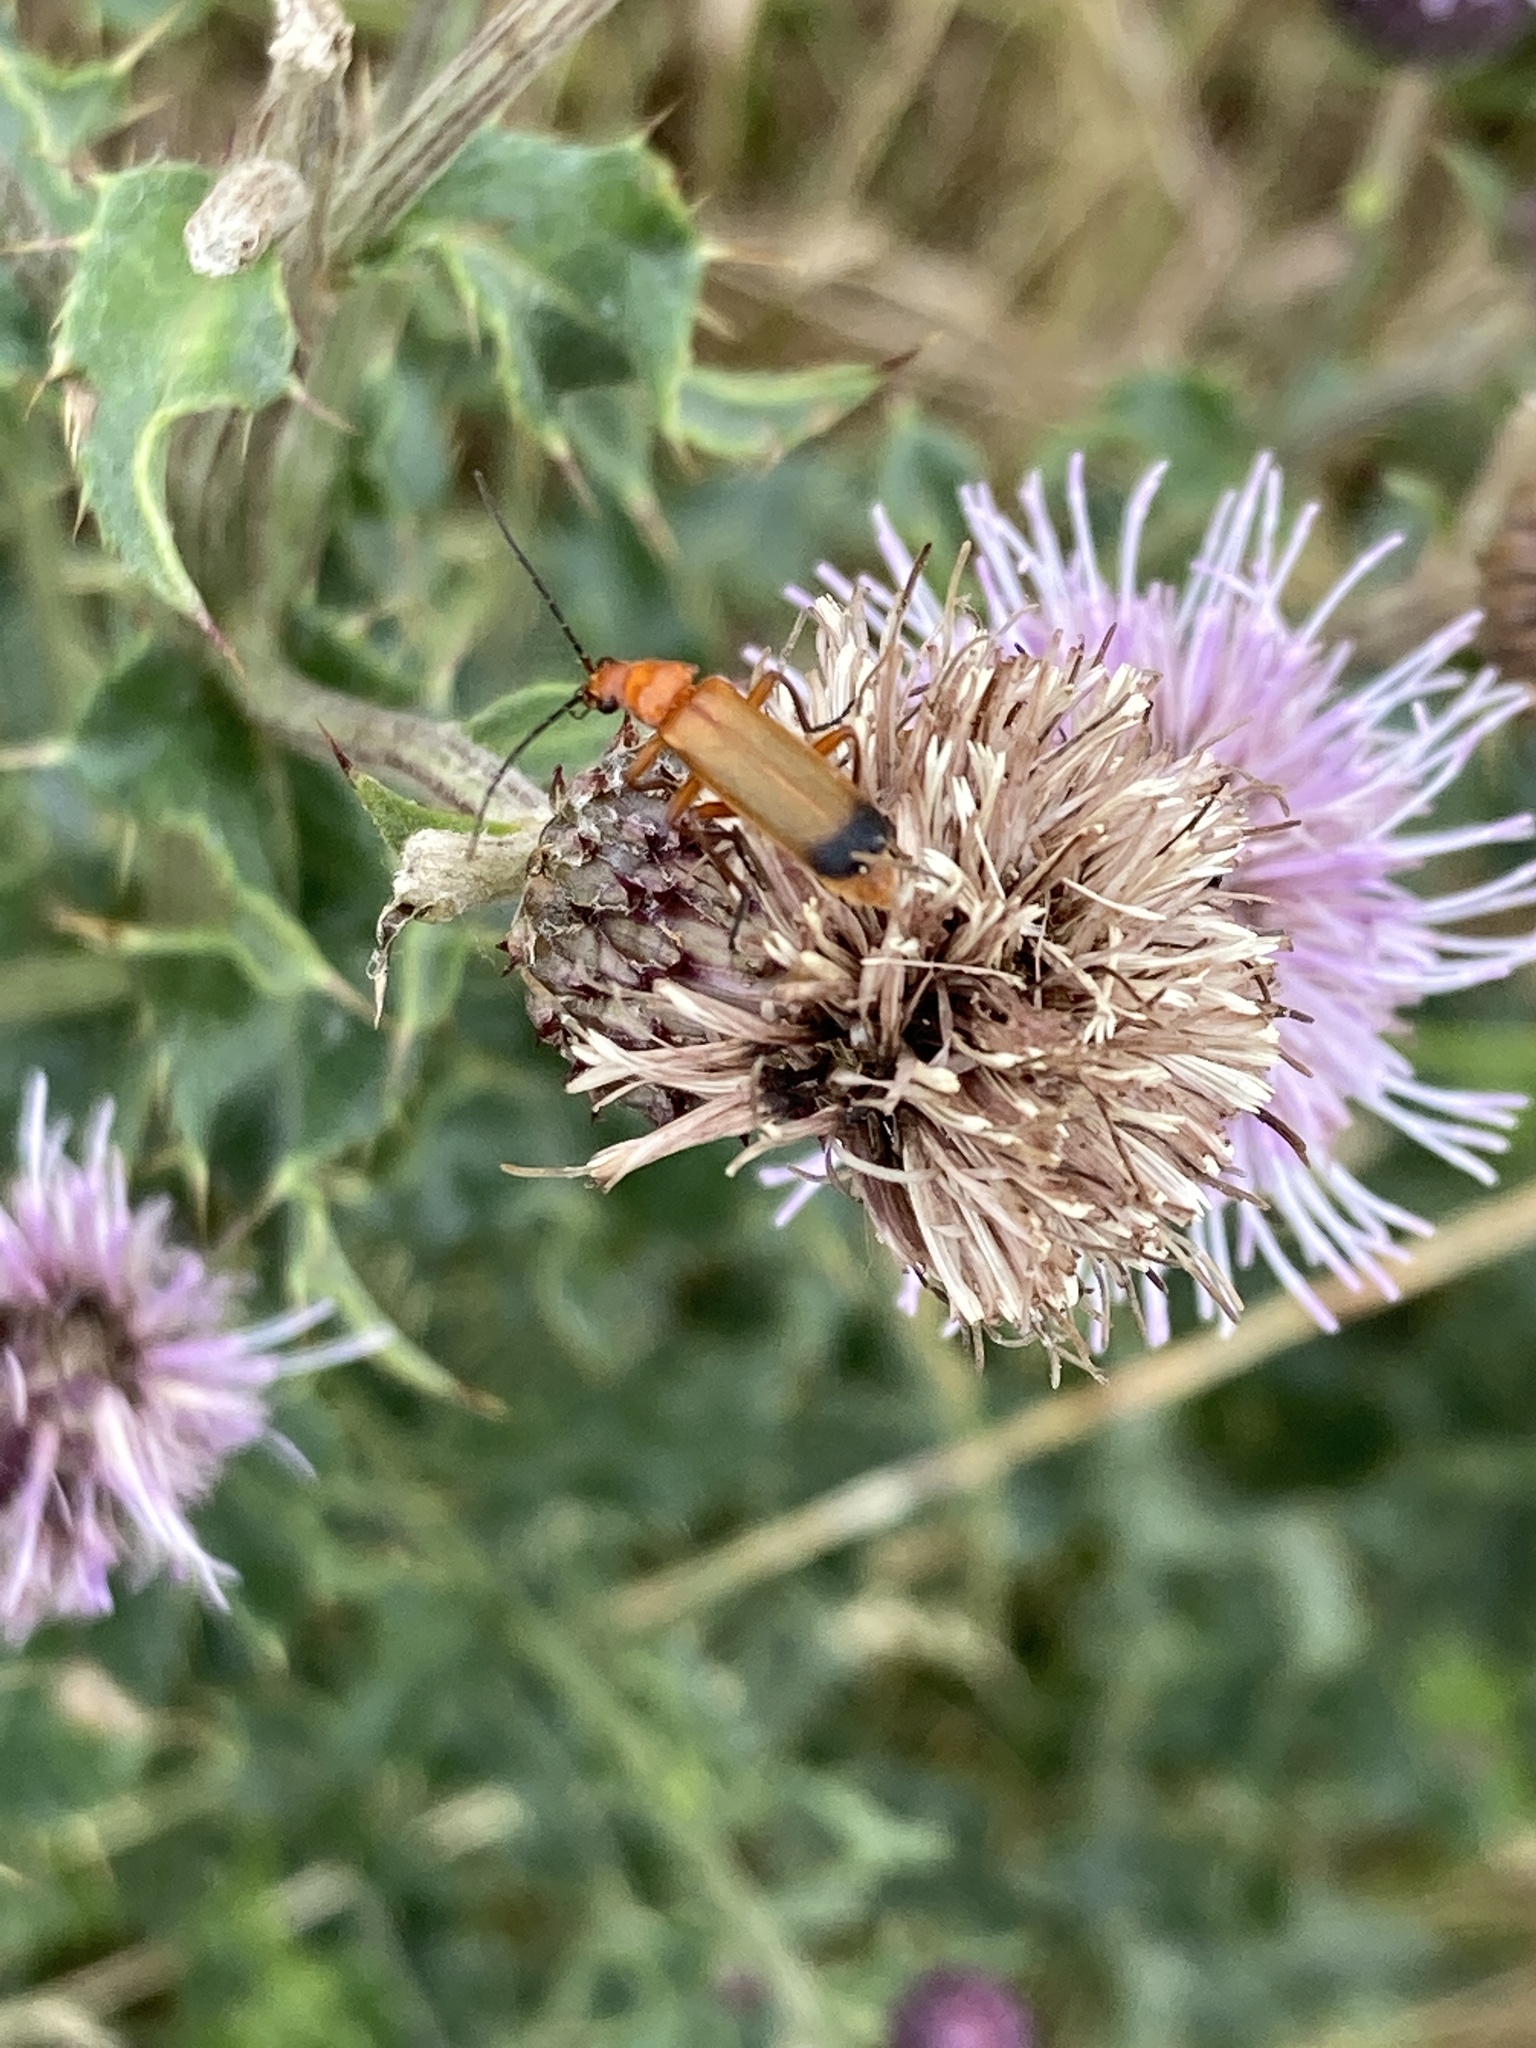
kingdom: Animalia
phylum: Arthropoda
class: Insecta
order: Coleoptera
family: Cantharidae
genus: Rhagonycha
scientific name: Rhagonycha fulva
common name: Common red soldier beetle
